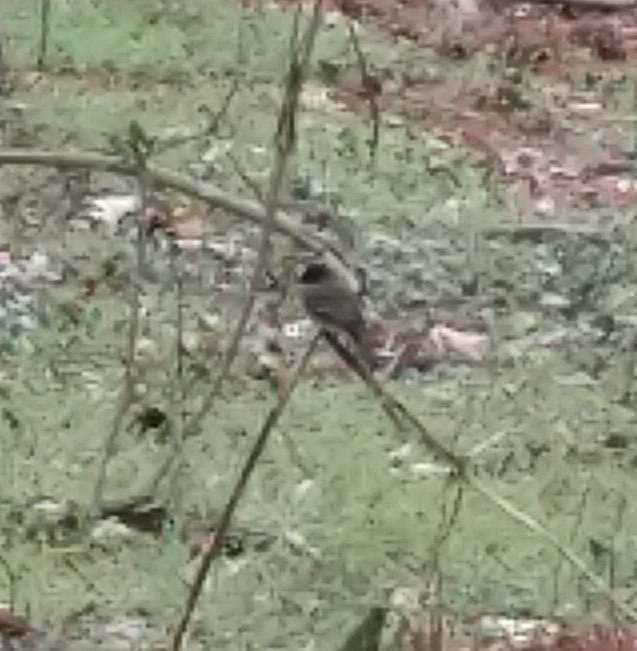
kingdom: Animalia
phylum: Chordata
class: Aves
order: Passeriformes
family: Tyrannidae
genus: Sayornis
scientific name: Sayornis phoebe
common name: Eastern phoebe
